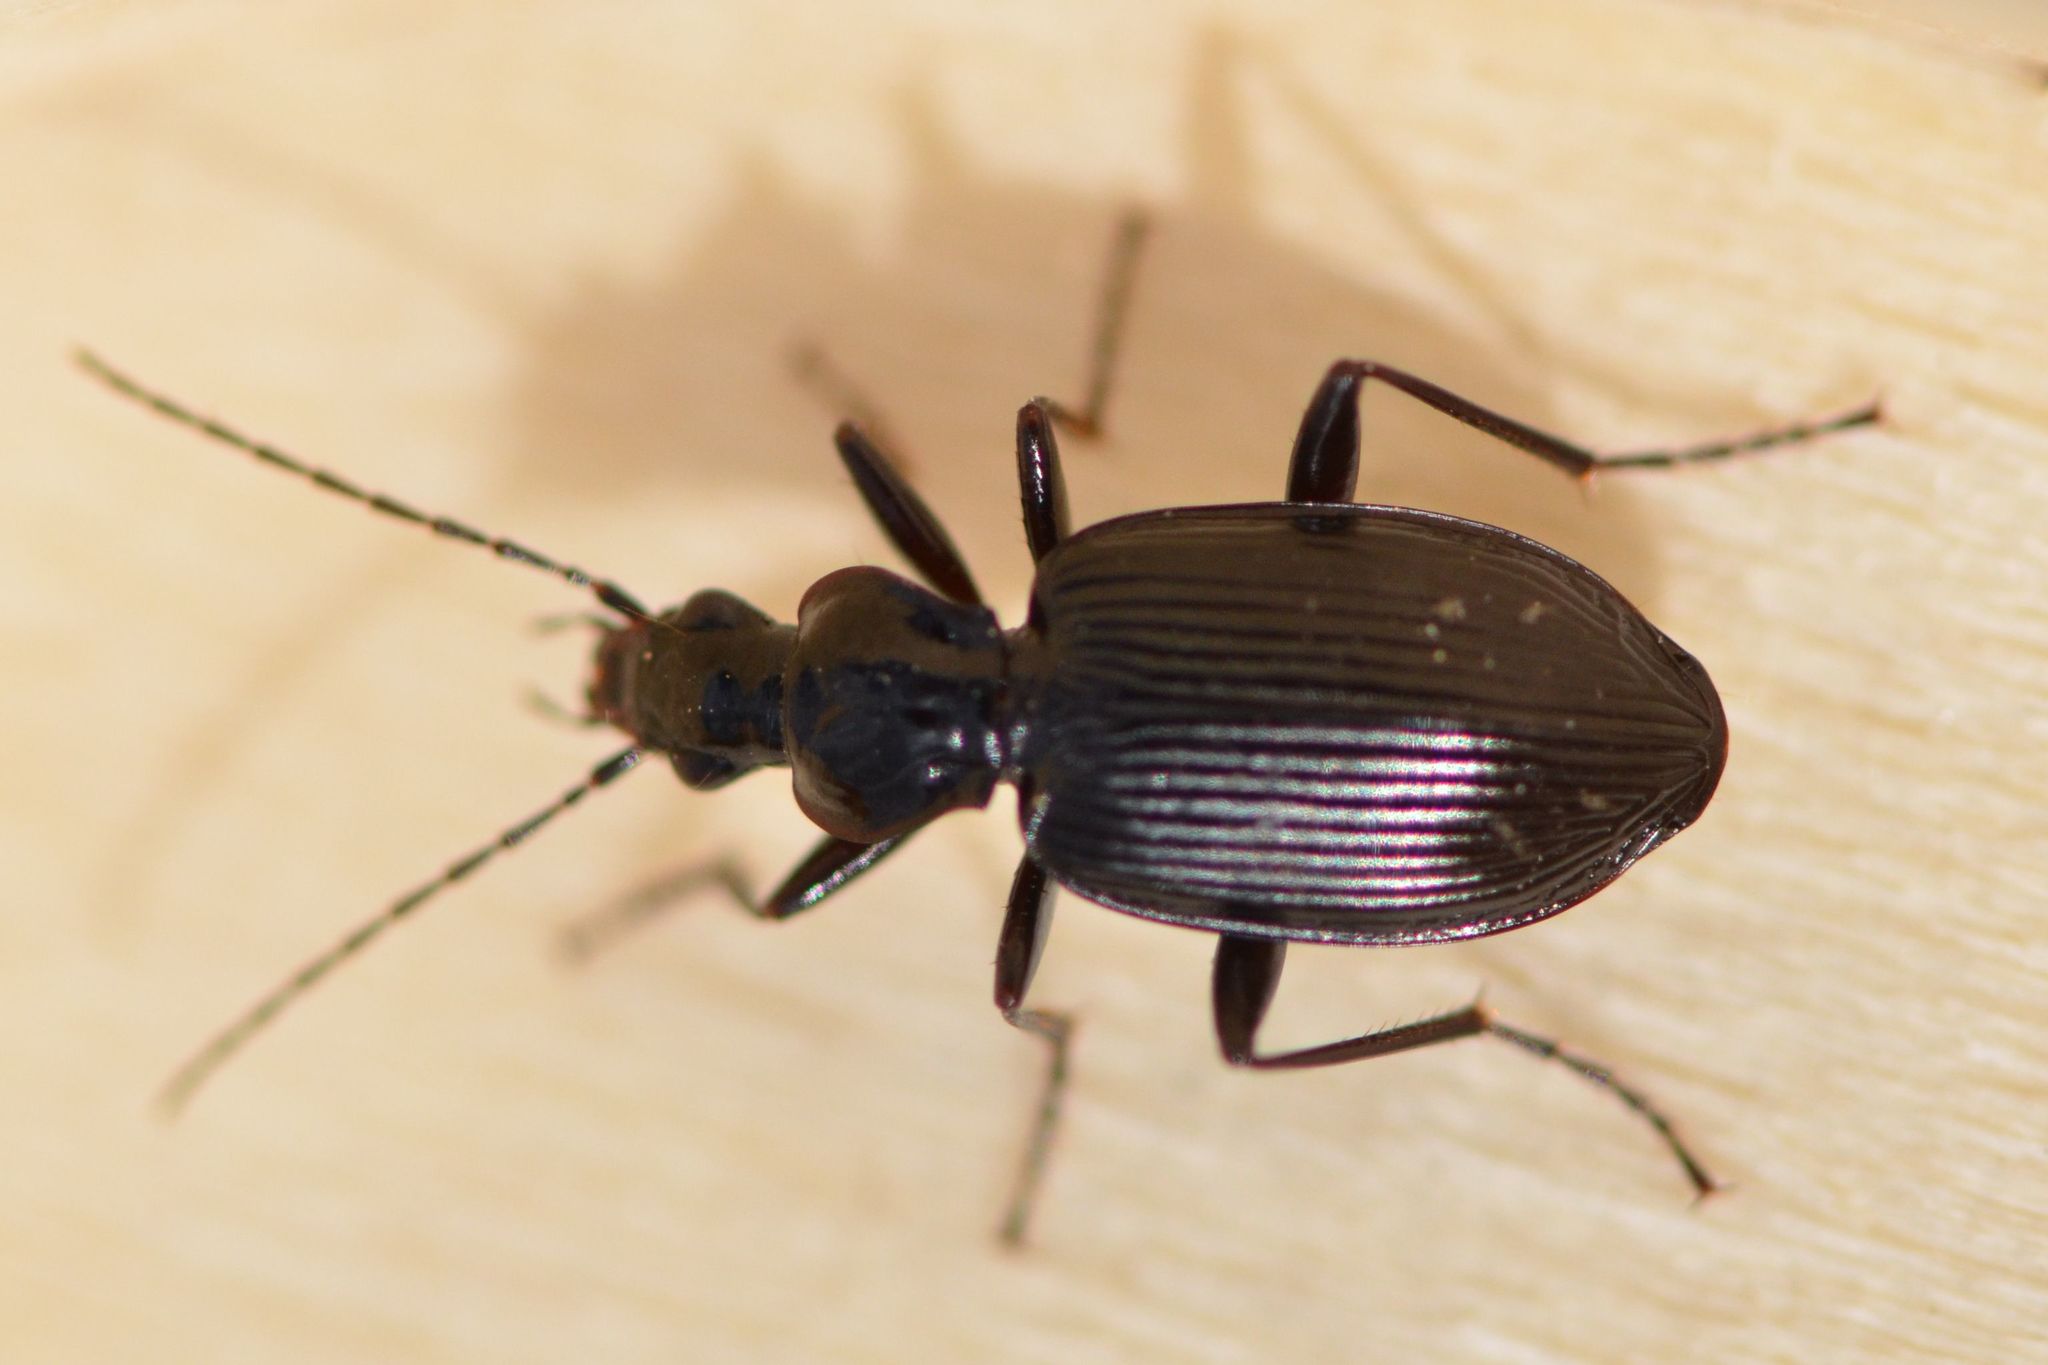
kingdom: Animalia
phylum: Arthropoda
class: Insecta
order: Coleoptera
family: Carabidae
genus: Platynus
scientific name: Platynus assimilis
